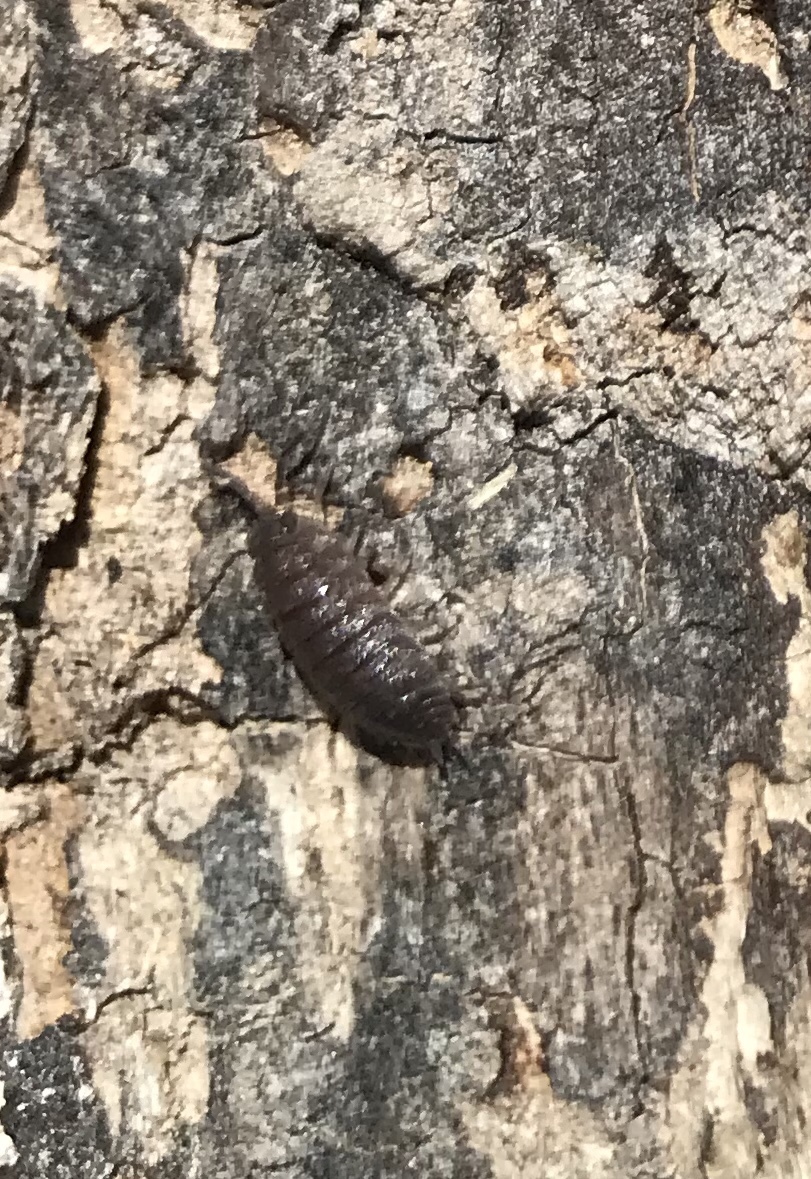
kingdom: Animalia
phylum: Arthropoda
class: Malacostraca
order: Isopoda
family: Porcellionidae
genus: Porcellio
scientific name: Porcellio scaber
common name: Common rough woodlouse
